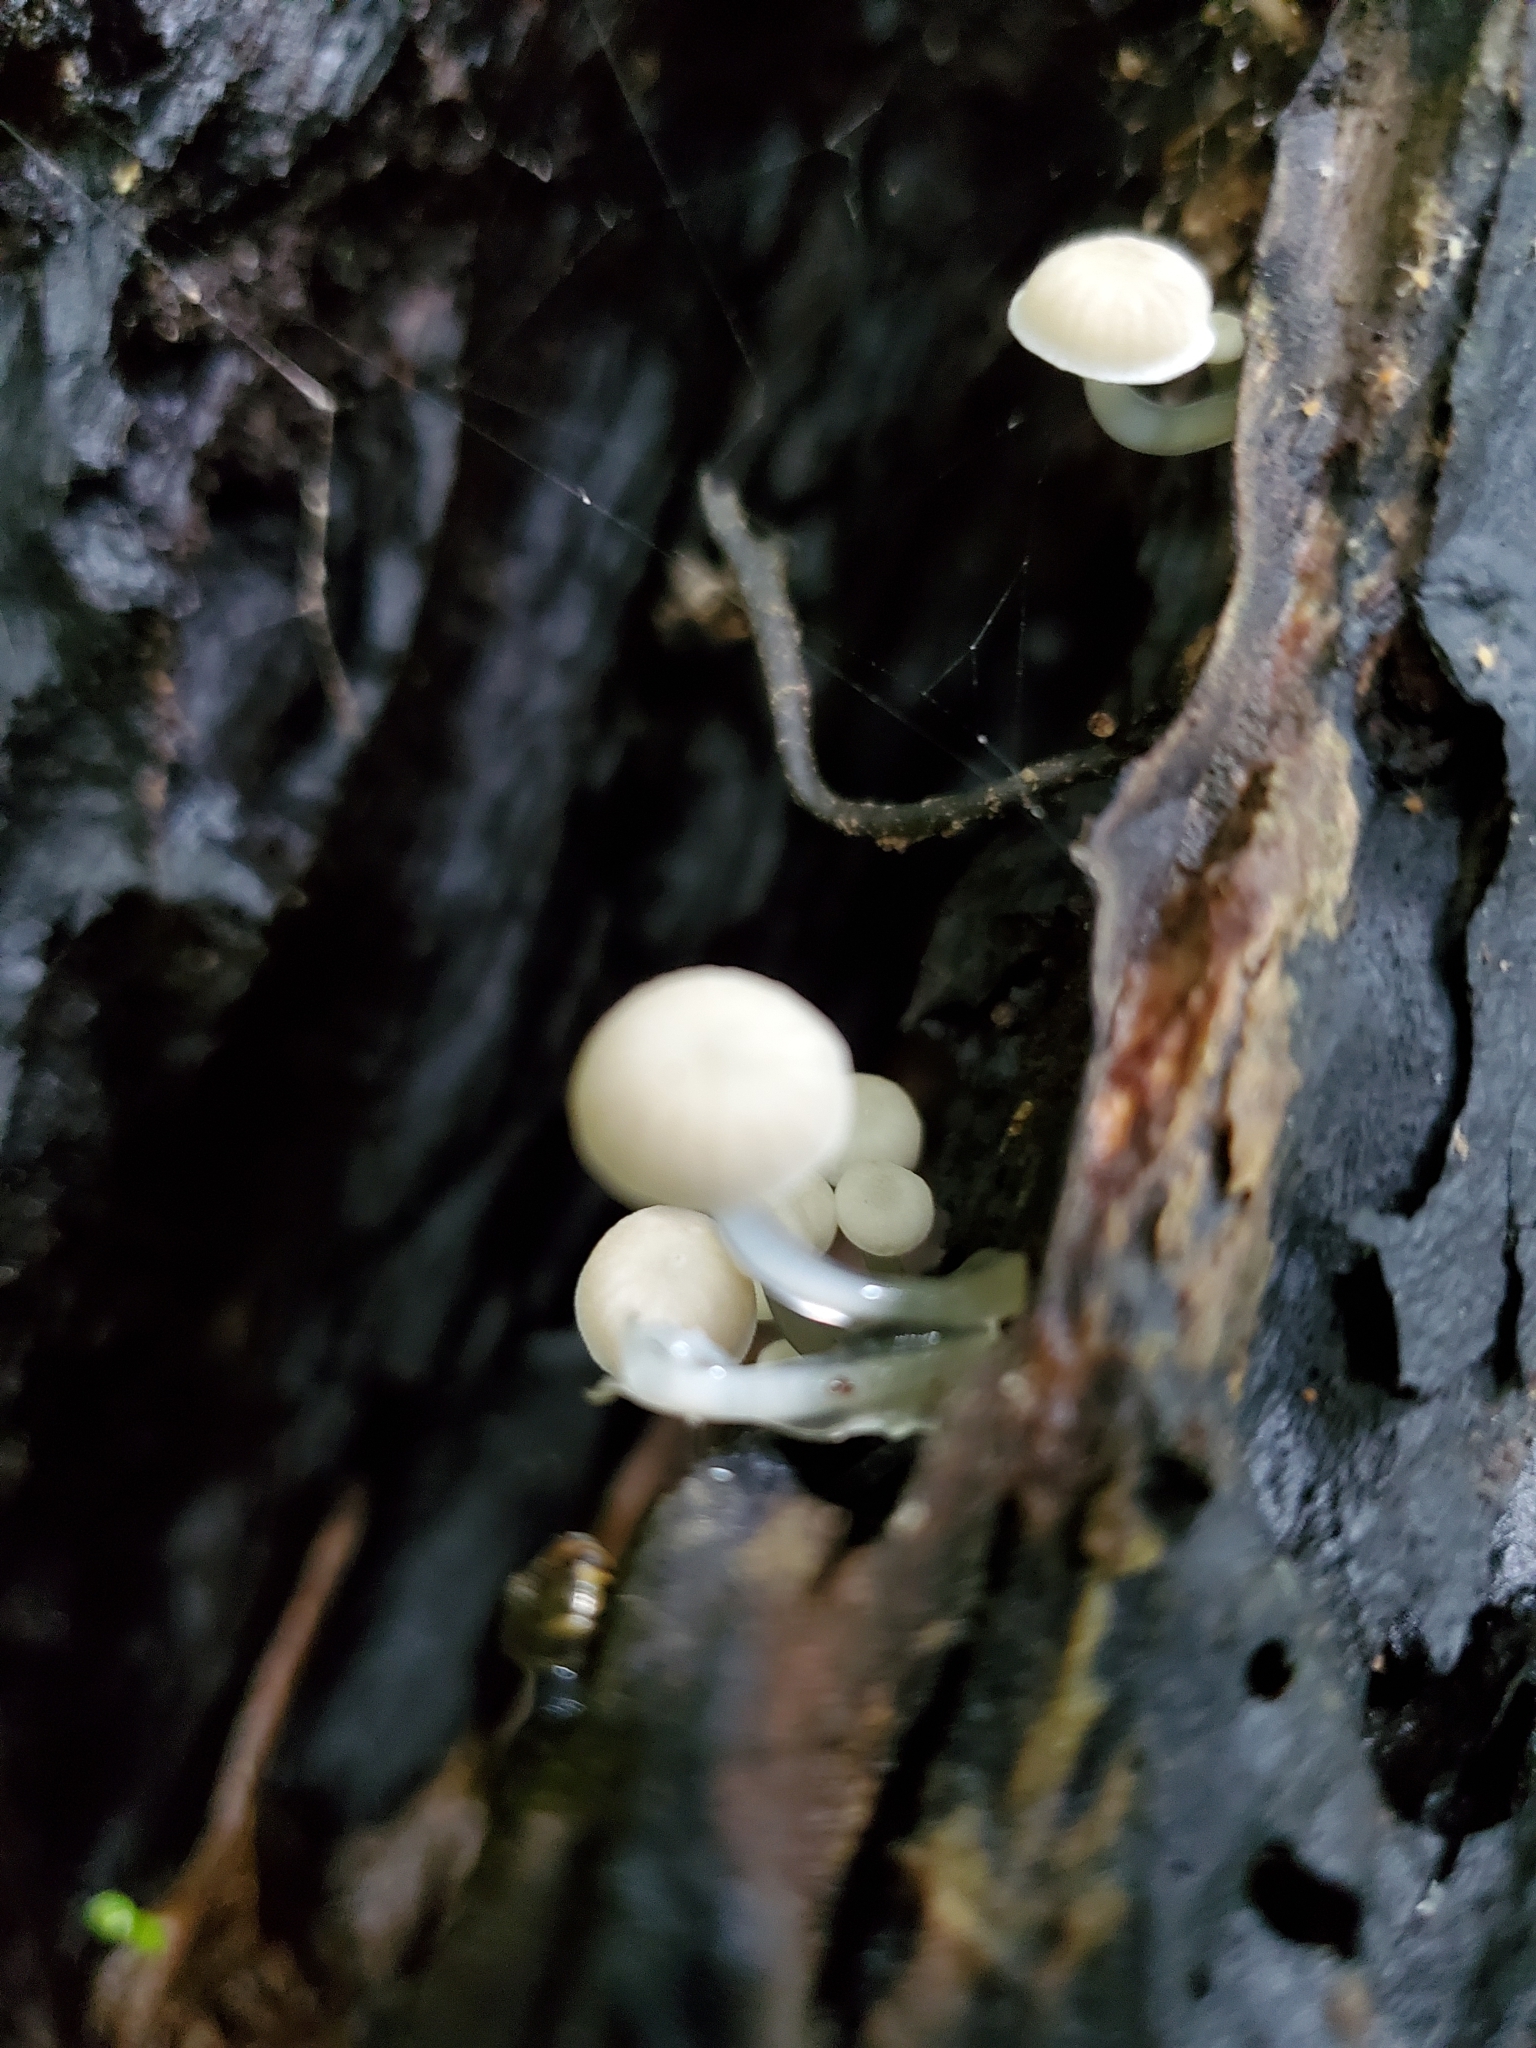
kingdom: Fungi
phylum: Basidiomycota
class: Agaricomycetes
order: Agaricales
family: Mycenaceae
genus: Roridomyces
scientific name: Roridomyces austrororidus
